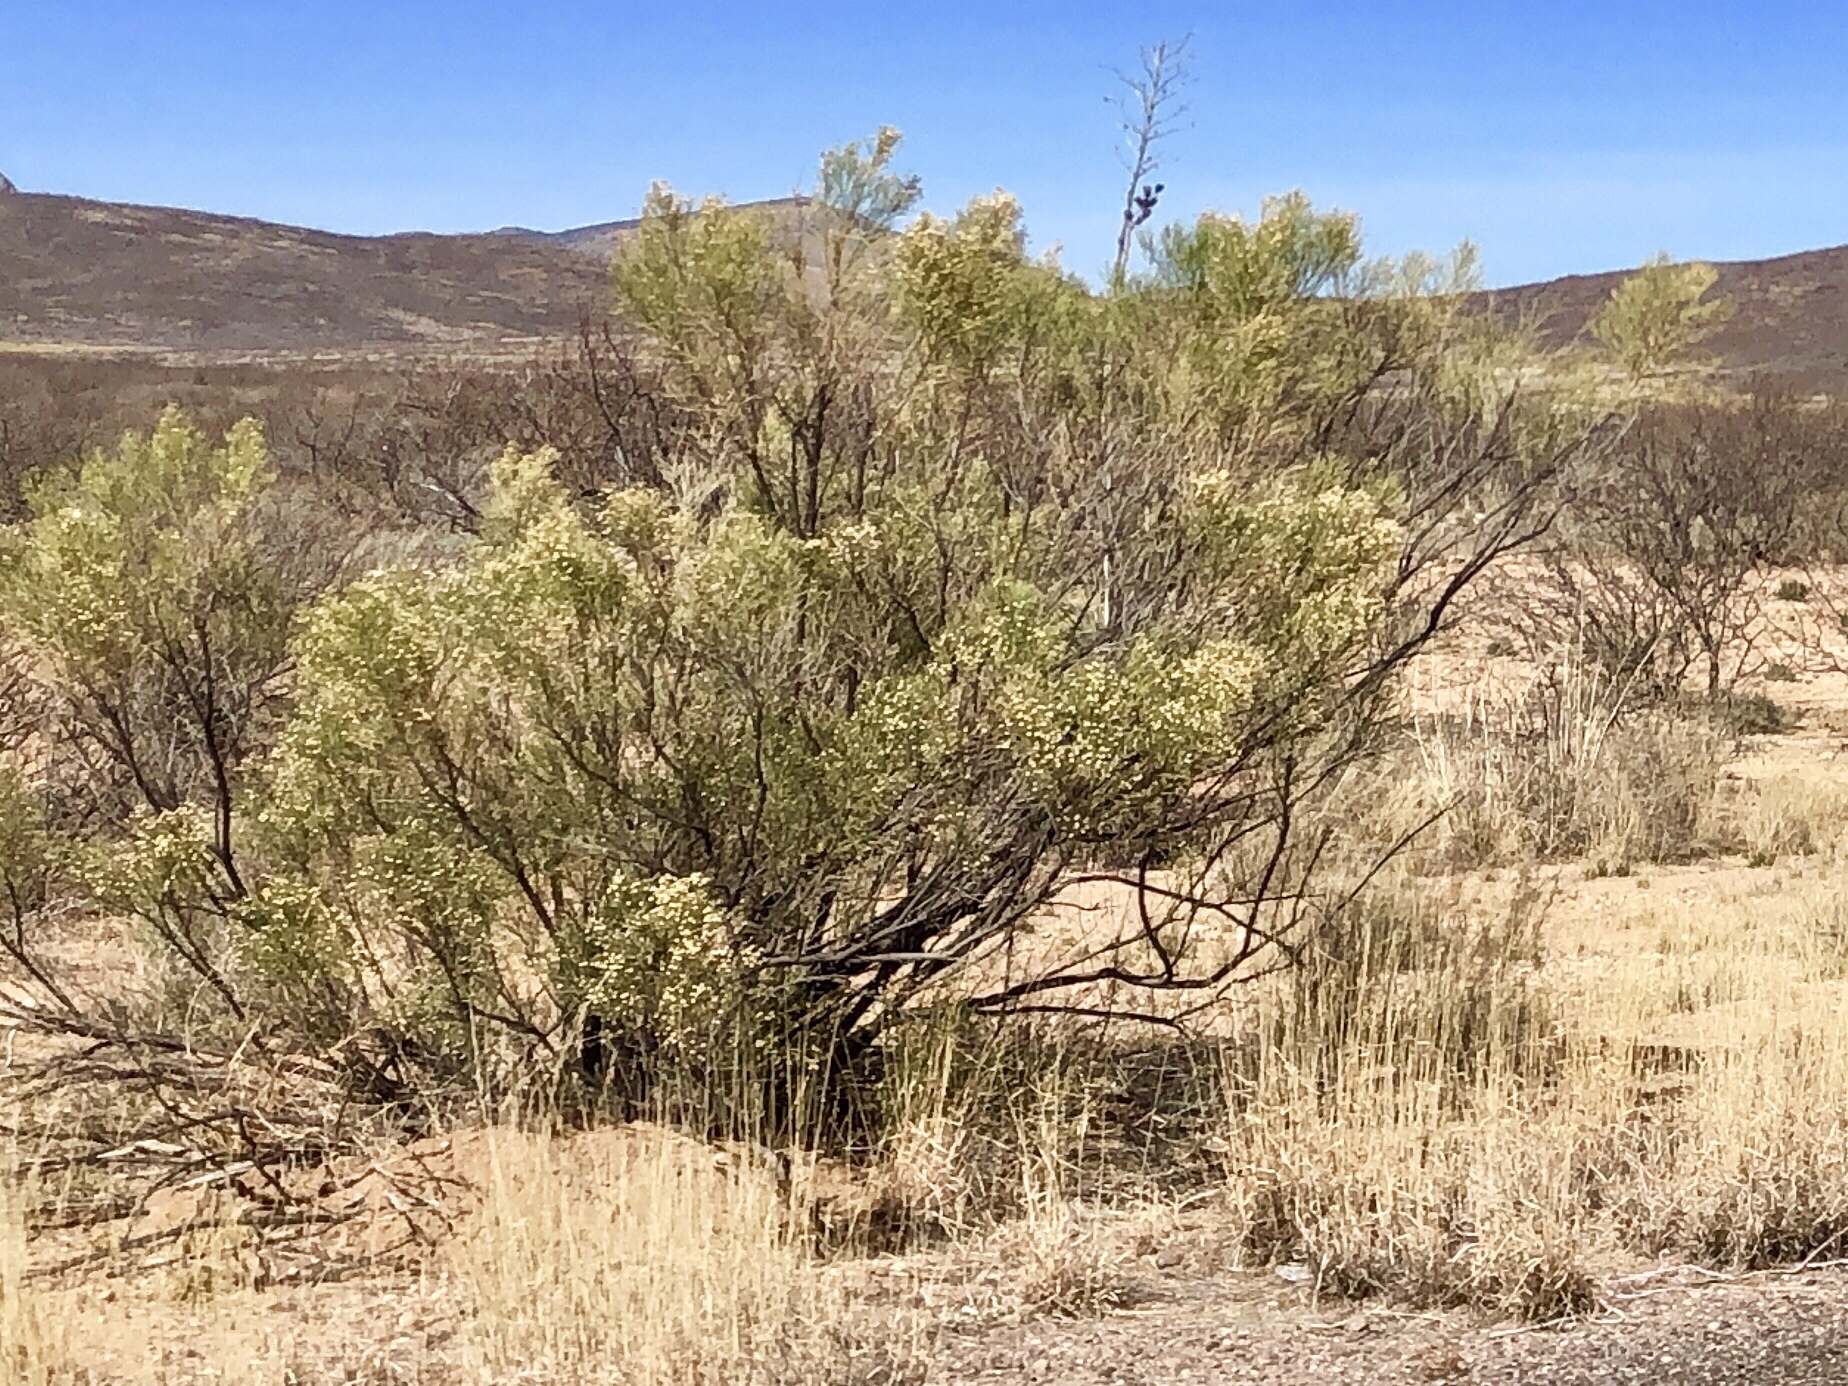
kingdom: Plantae
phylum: Tracheophyta
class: Magnoliopsida
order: Asterales
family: Asteraceae
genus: Baccharis
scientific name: Baccharis sarothroides
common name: Desert-broom
